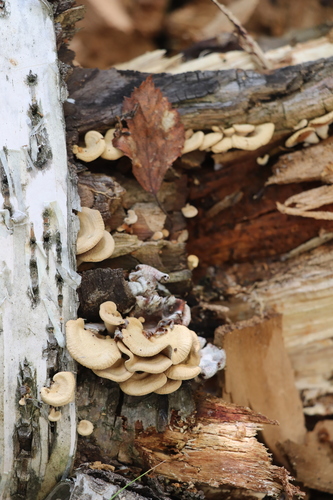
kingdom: Fungi
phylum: Basidiomycota
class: Agaricomycetes
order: Agaricales
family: Mycenaceae
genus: Panellus
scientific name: Panellus stipticus
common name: Bitter oysterling
